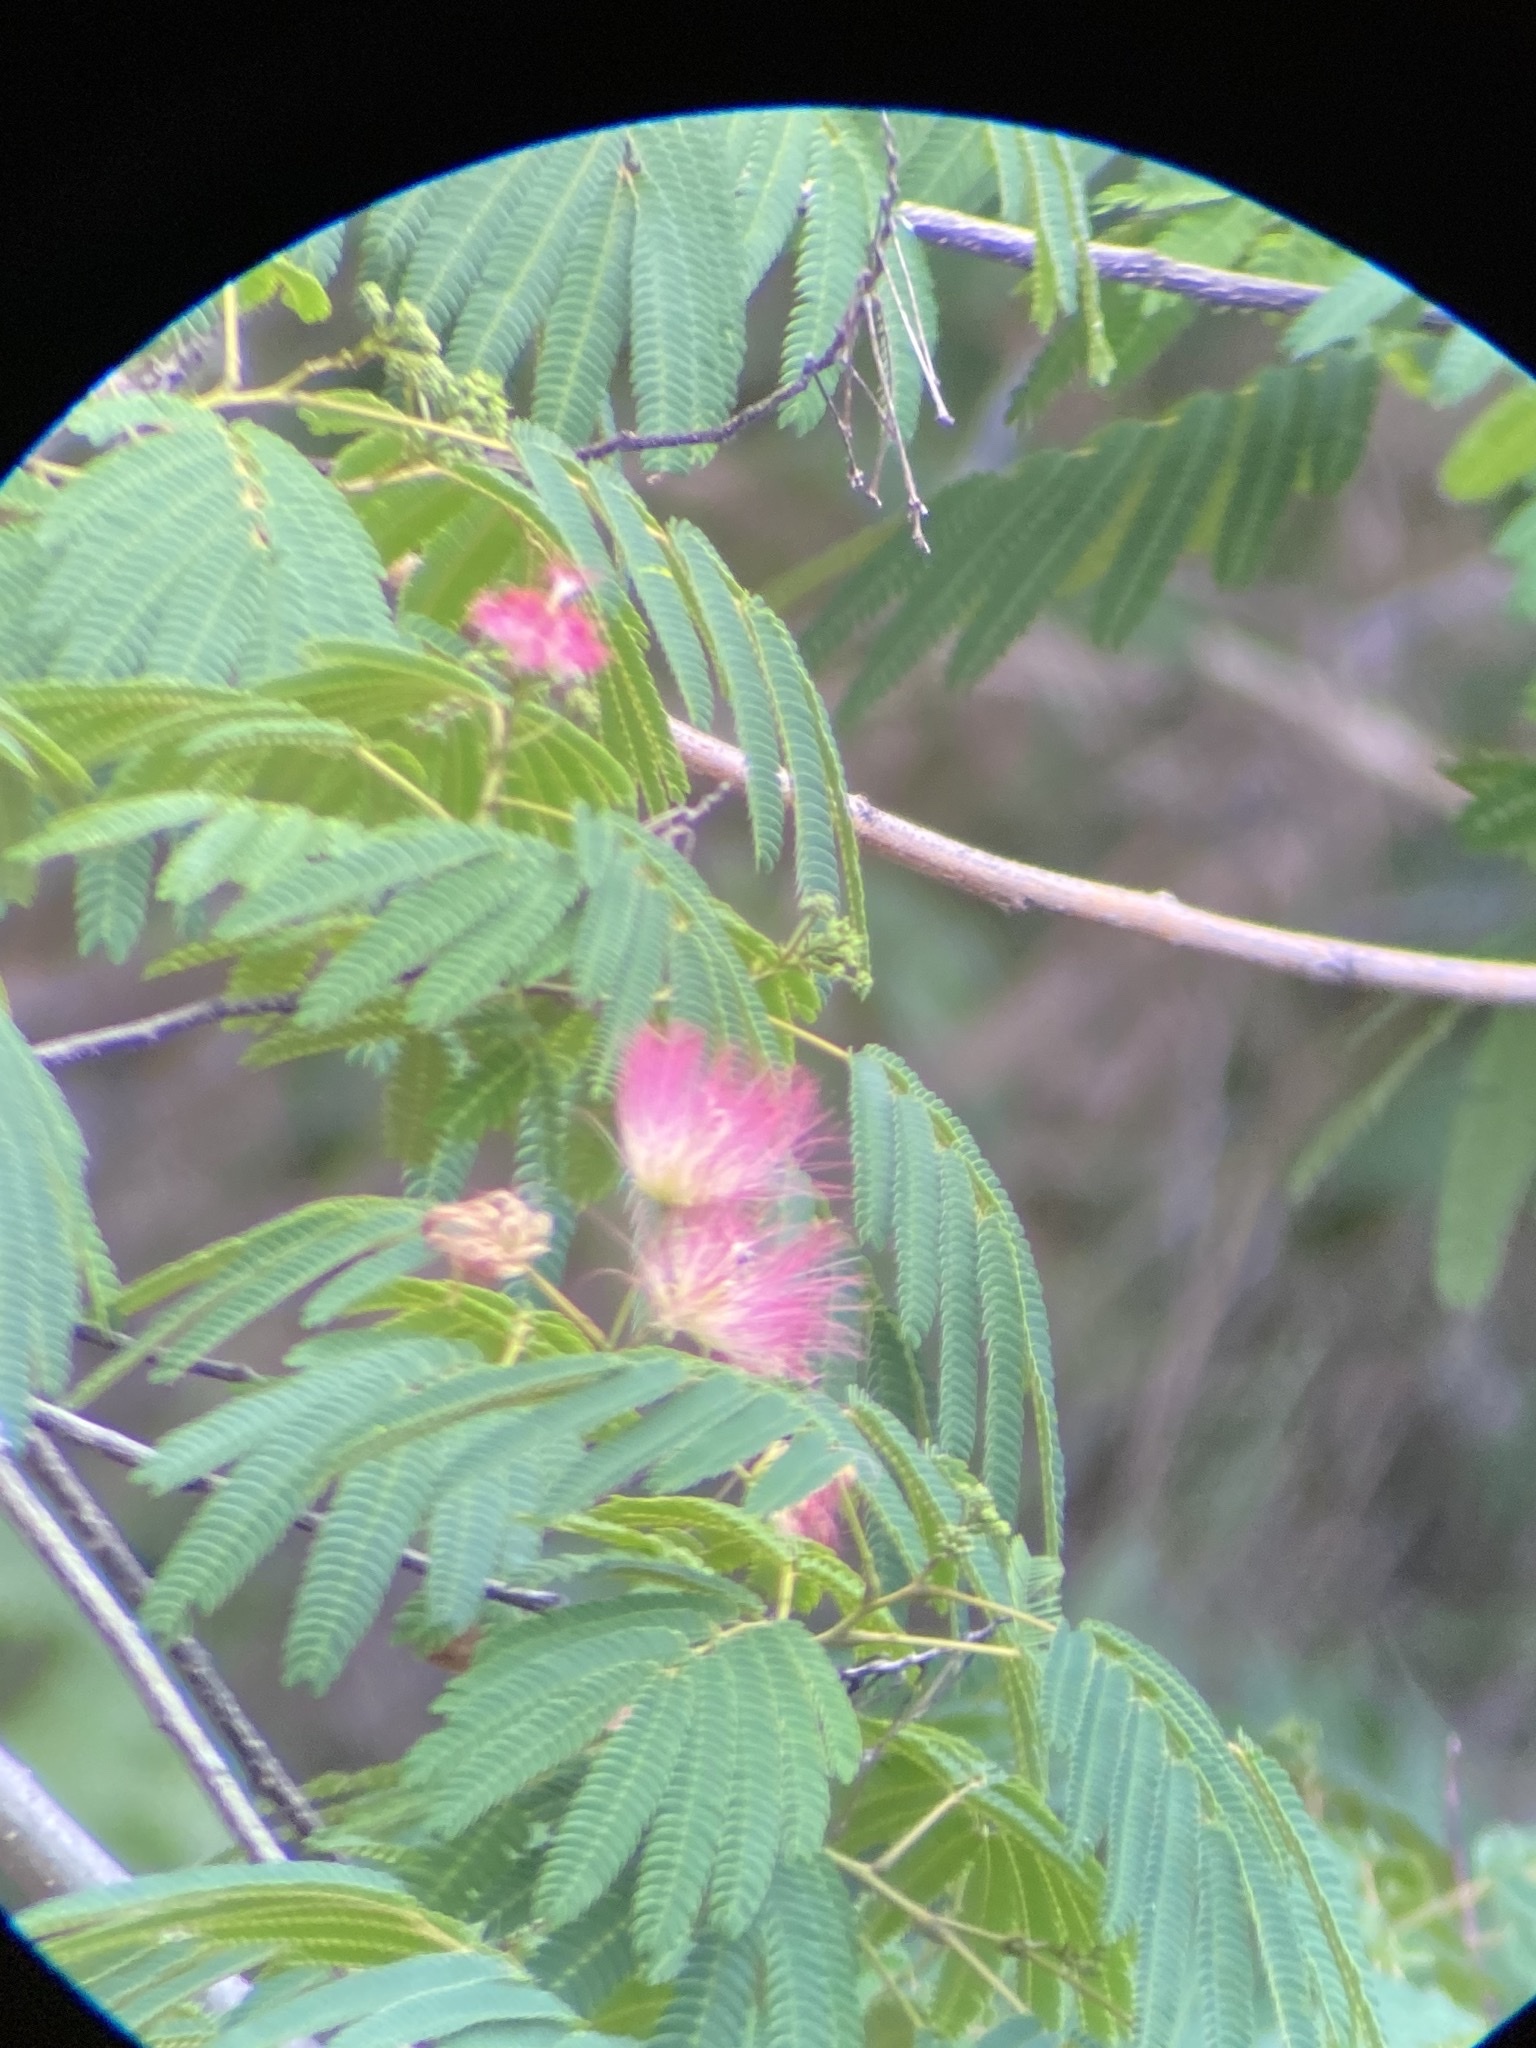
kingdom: Plantae
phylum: Tracheophyta
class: Magnoliopsida
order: Fabales
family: Fabaceae
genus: Albizia
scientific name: Albizia julibrissin
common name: Silktree
